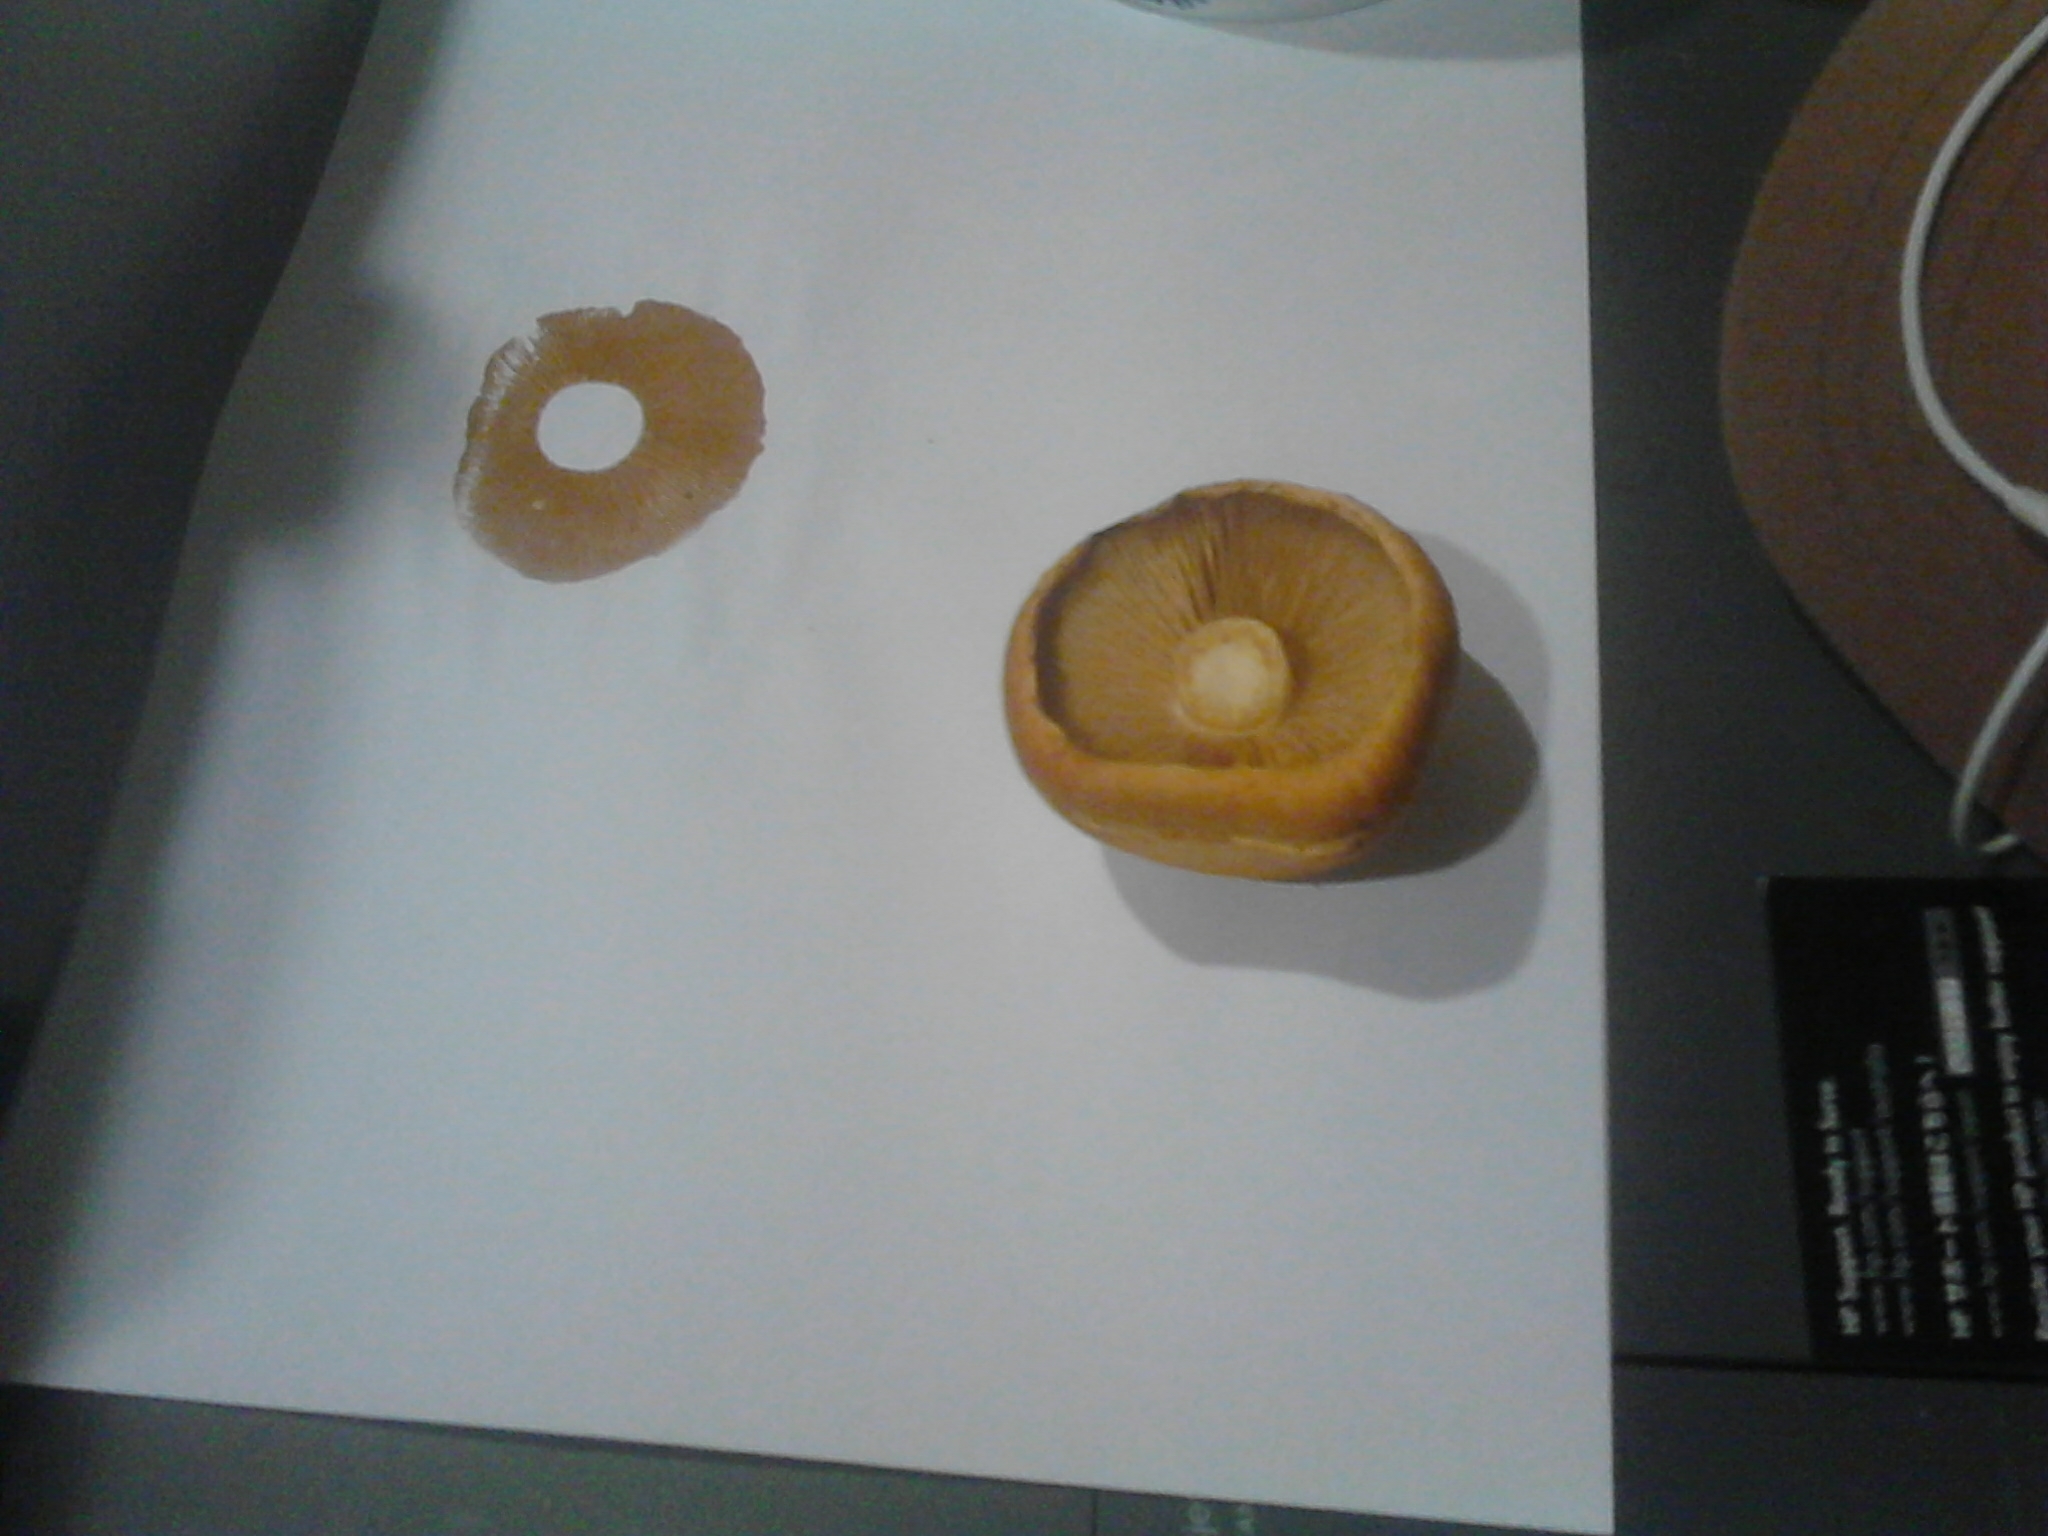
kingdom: Fungi
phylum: Basidiomycota
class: Agaricomycetes
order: Agaricales
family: Hymenogastraceae
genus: Gymnopilus
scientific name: Gymnopilus junonius
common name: Spectacular rustgill
